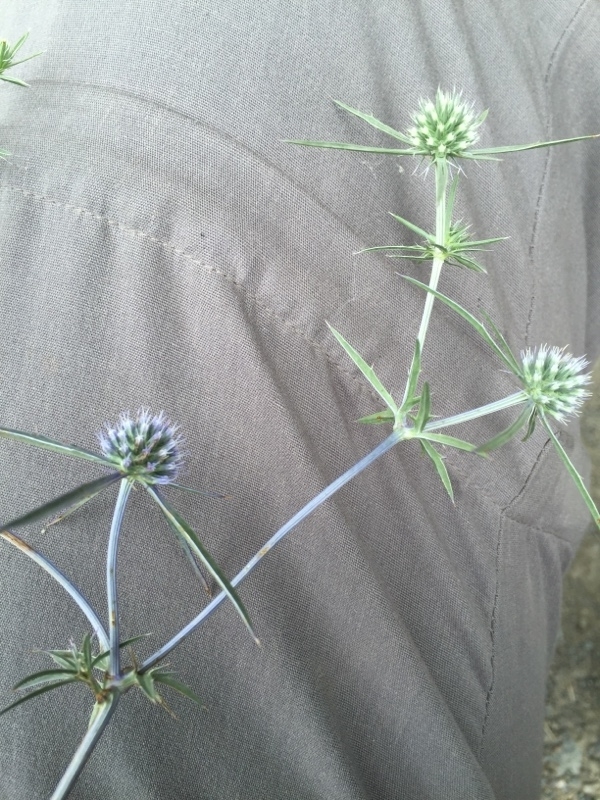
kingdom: Plantae
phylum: Tracheophyta
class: Magnoliopsida
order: Apiales
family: Apiaceae
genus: Eryngium
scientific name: Eryngium caeruleum
